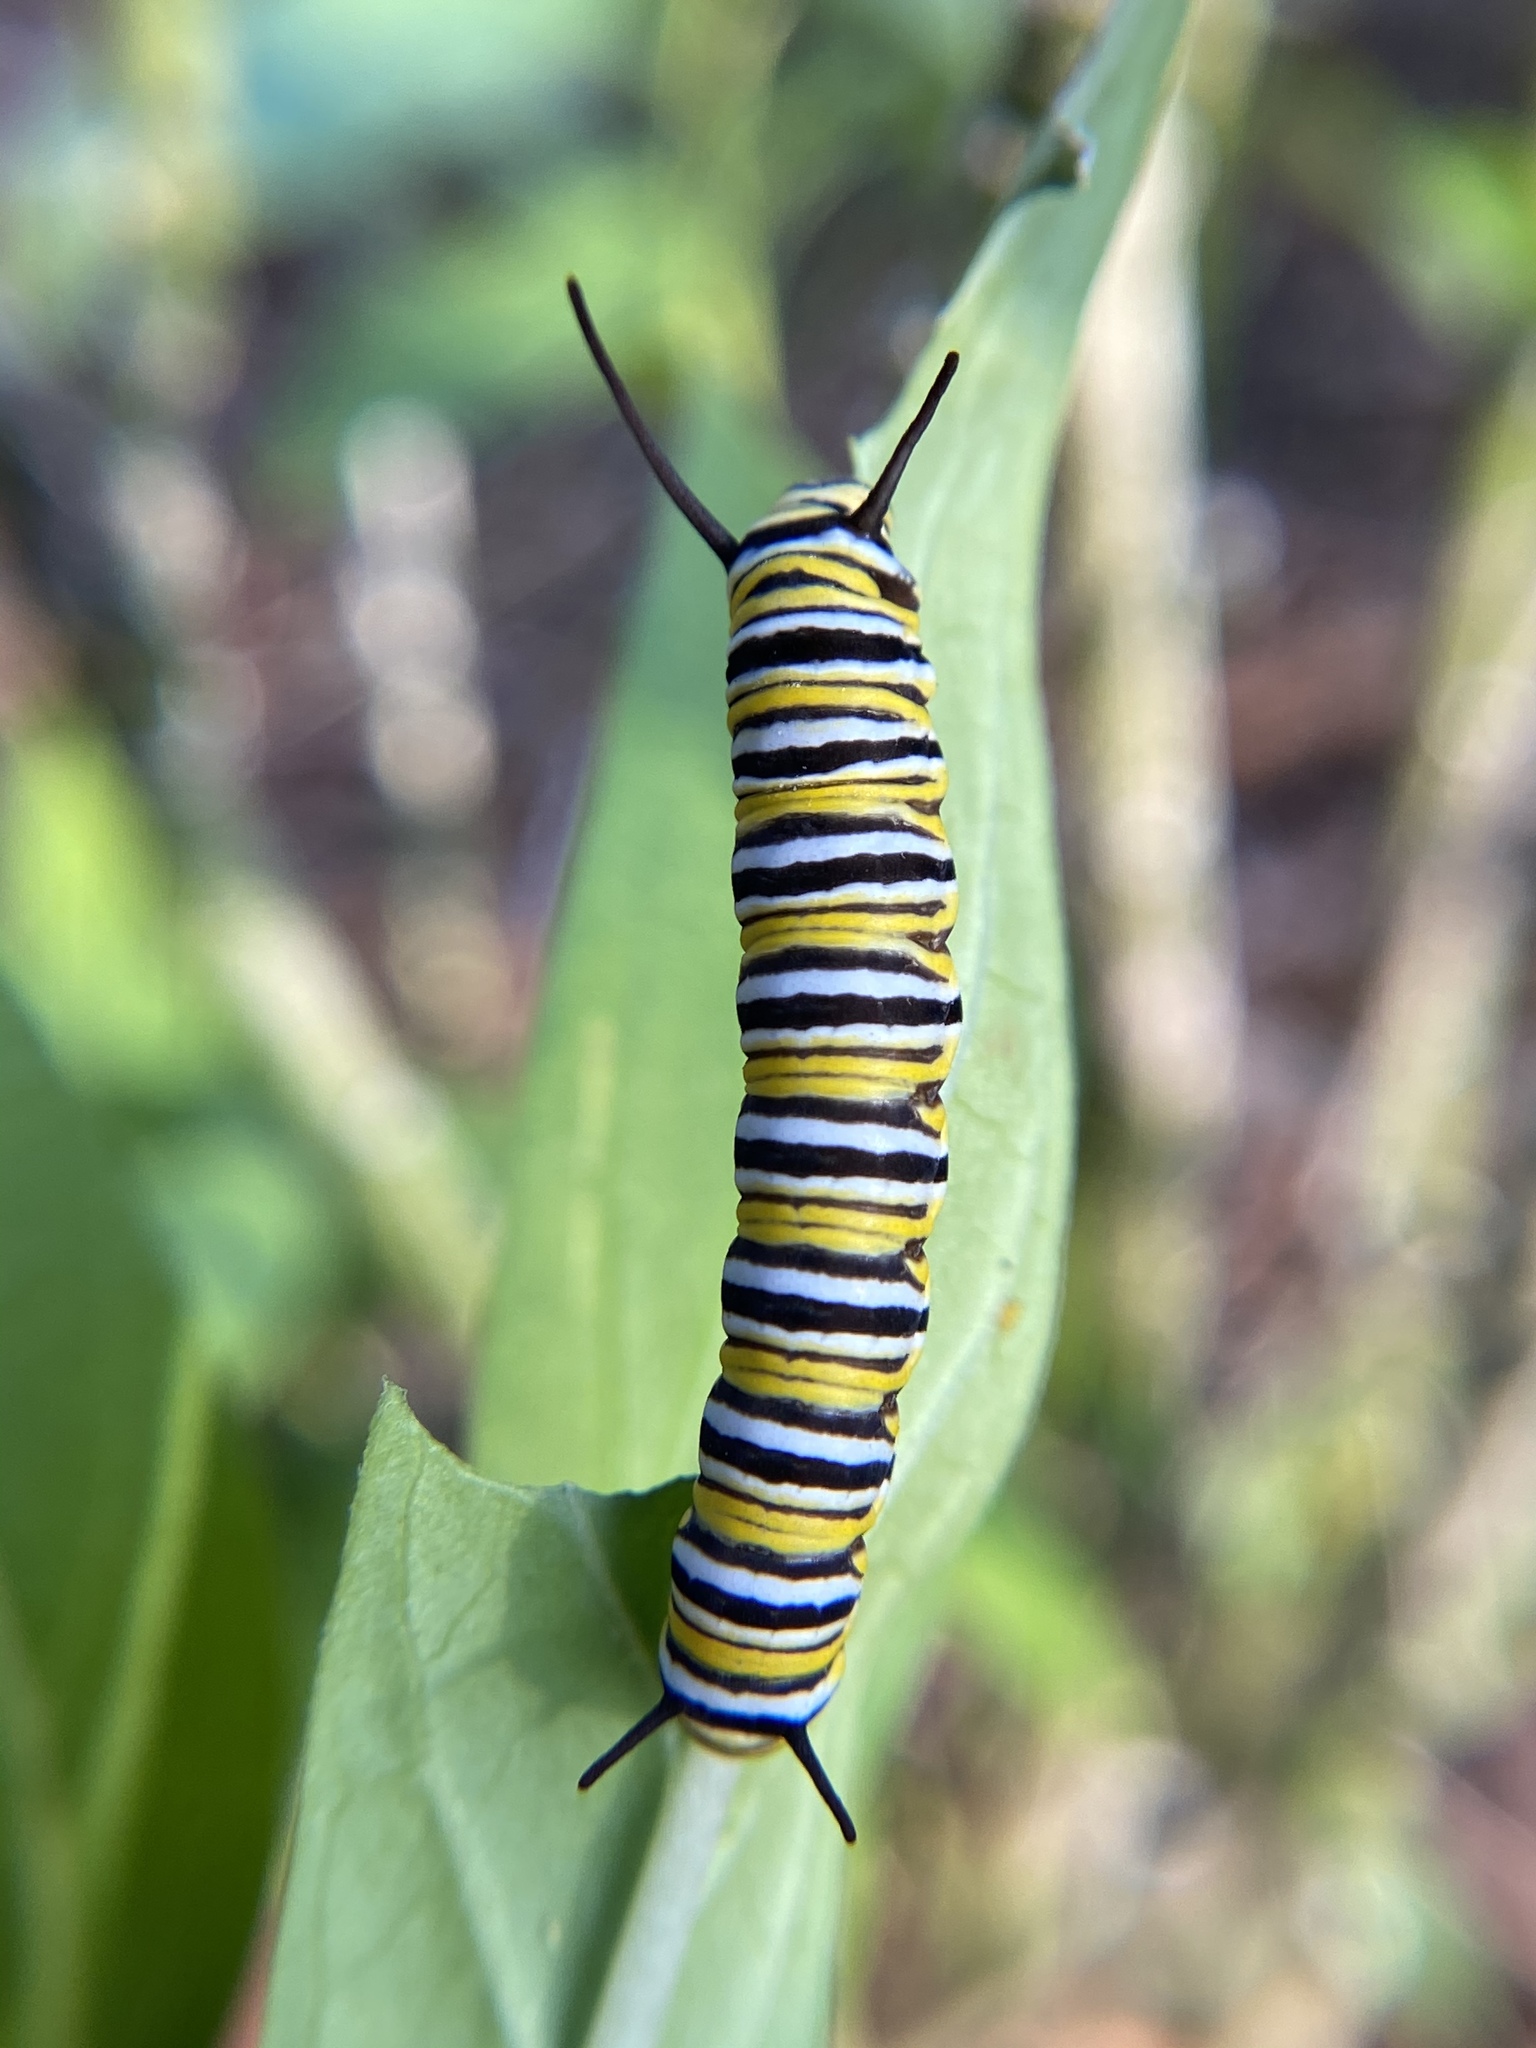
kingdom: Animalia
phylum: Arthropoda
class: Insecta
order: Lepidoptera
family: Nymphalidae
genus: Danaus
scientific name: Danaus plexippus
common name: Monarch
